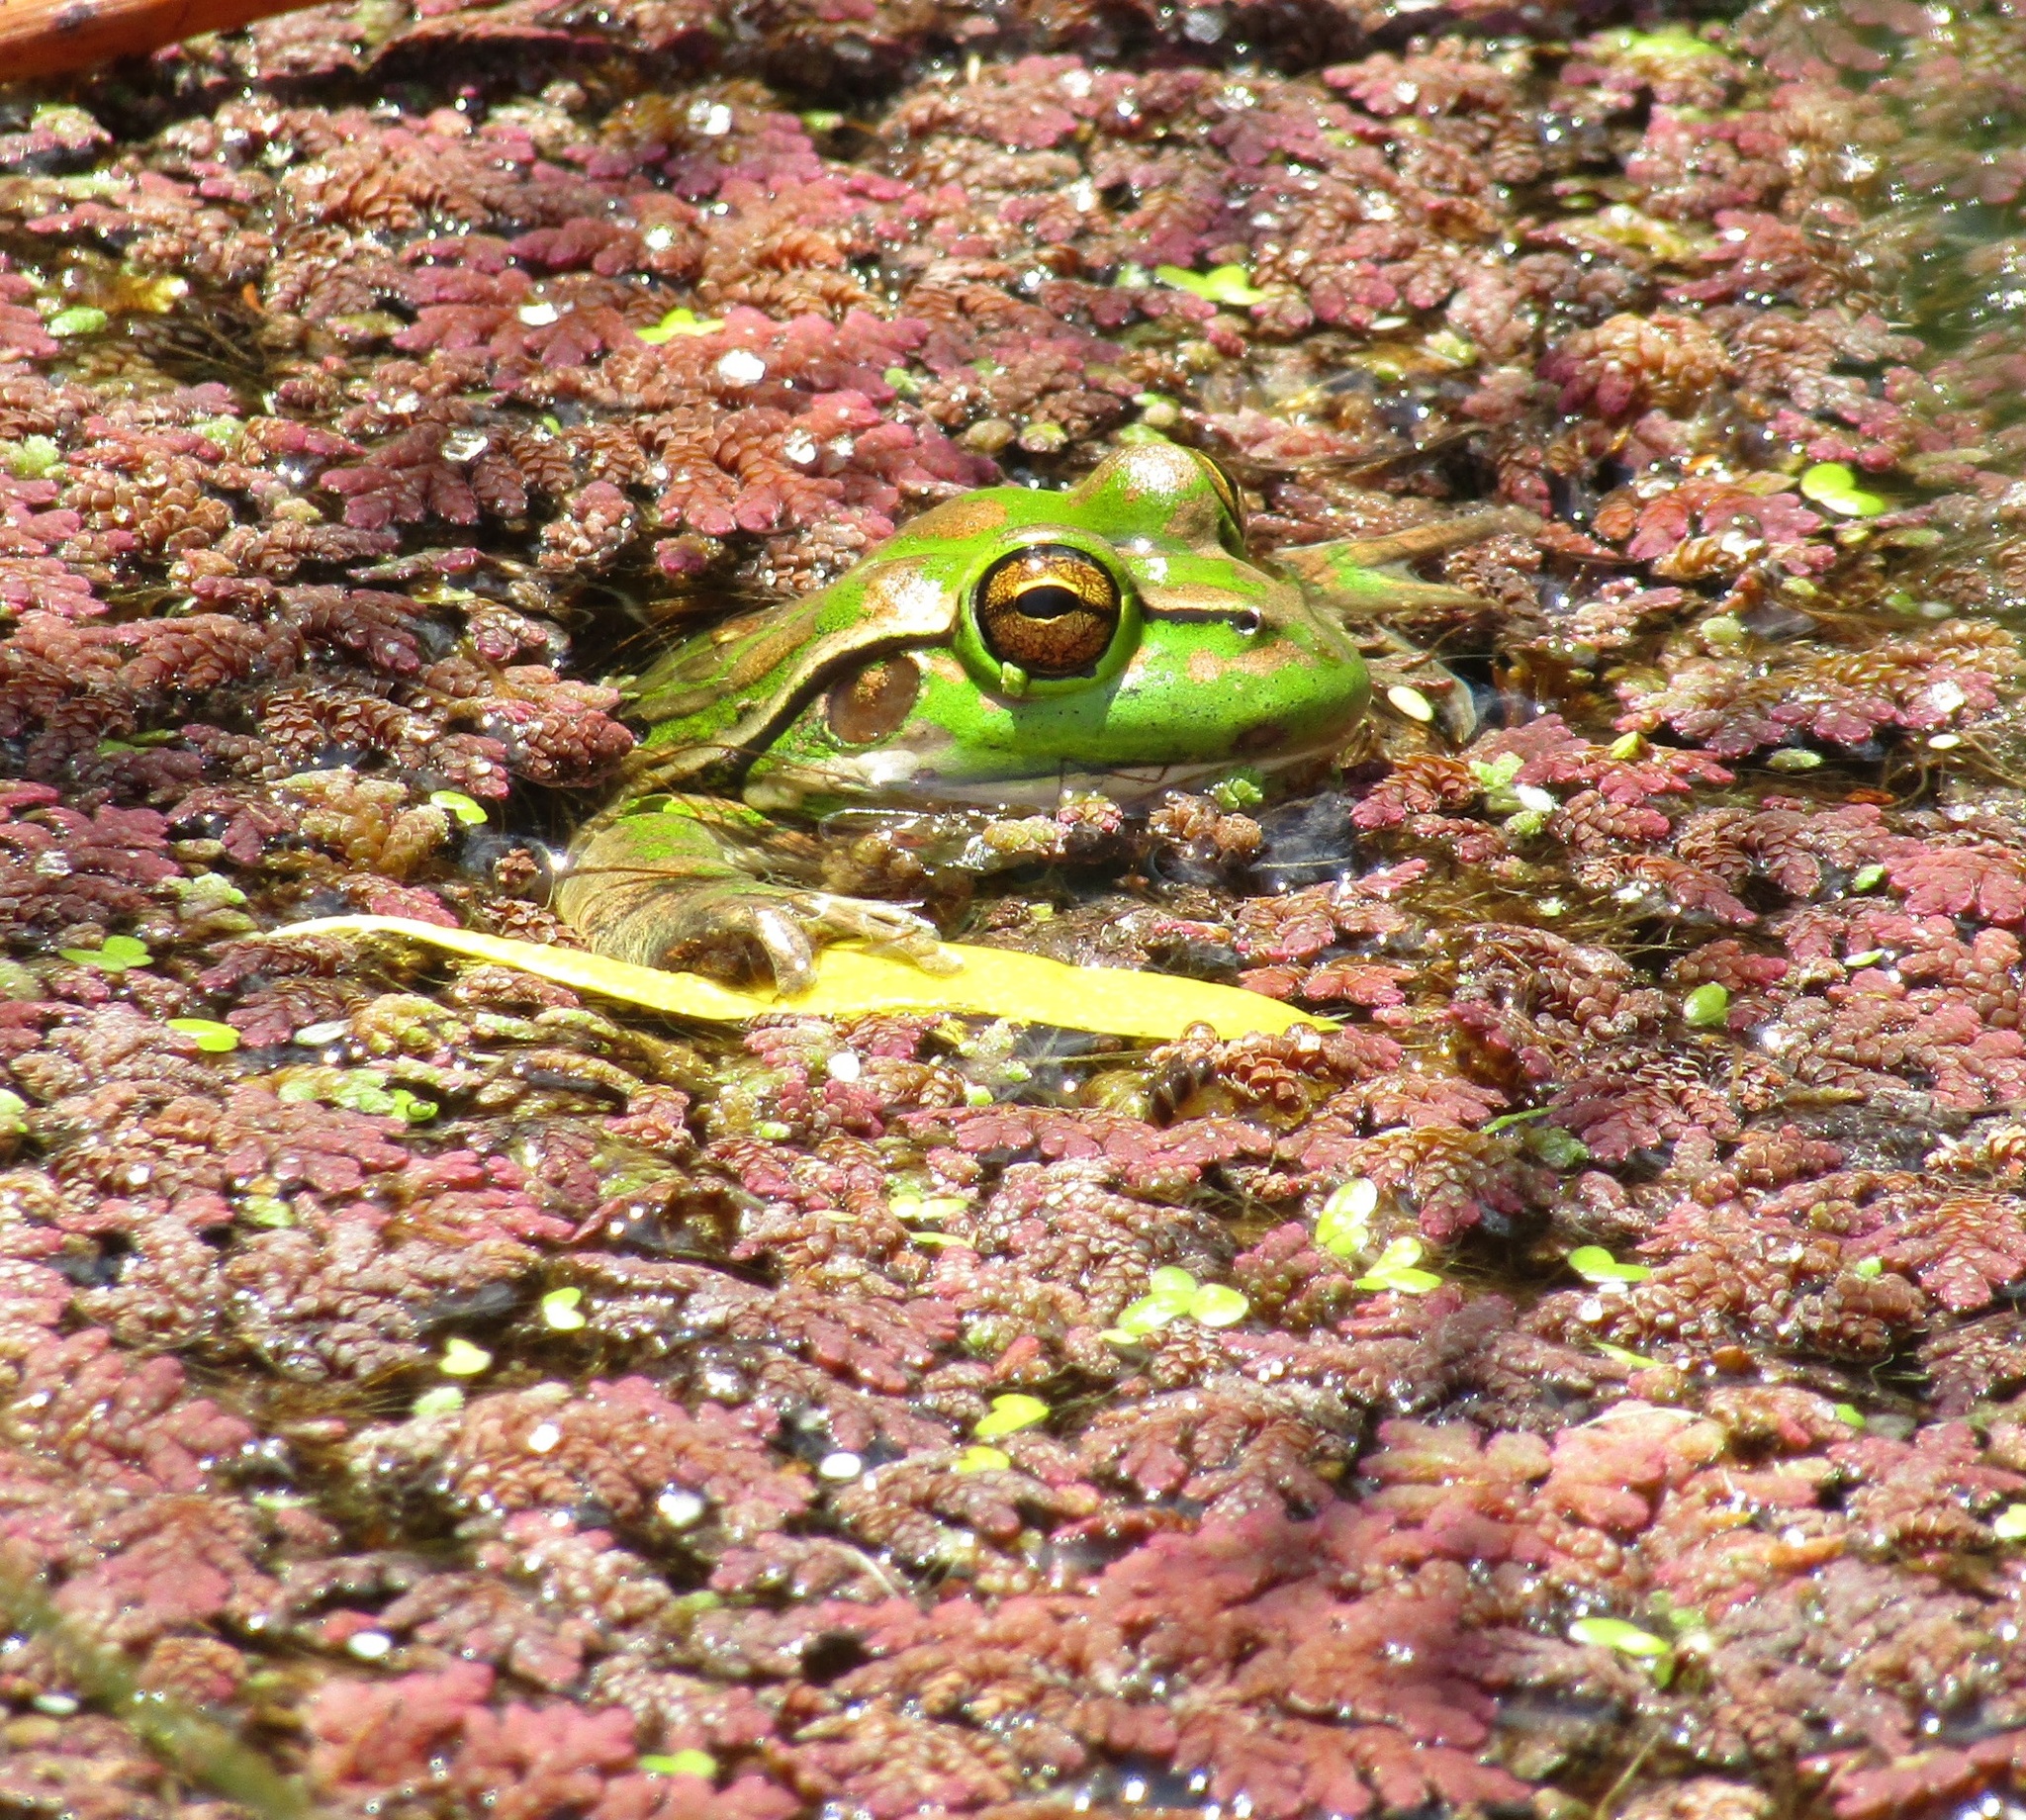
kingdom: Animalia
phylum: Chordata
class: Amphibia
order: Anura
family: Pelodryadidae
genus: Ranoidea
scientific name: Ranoidea aurea
